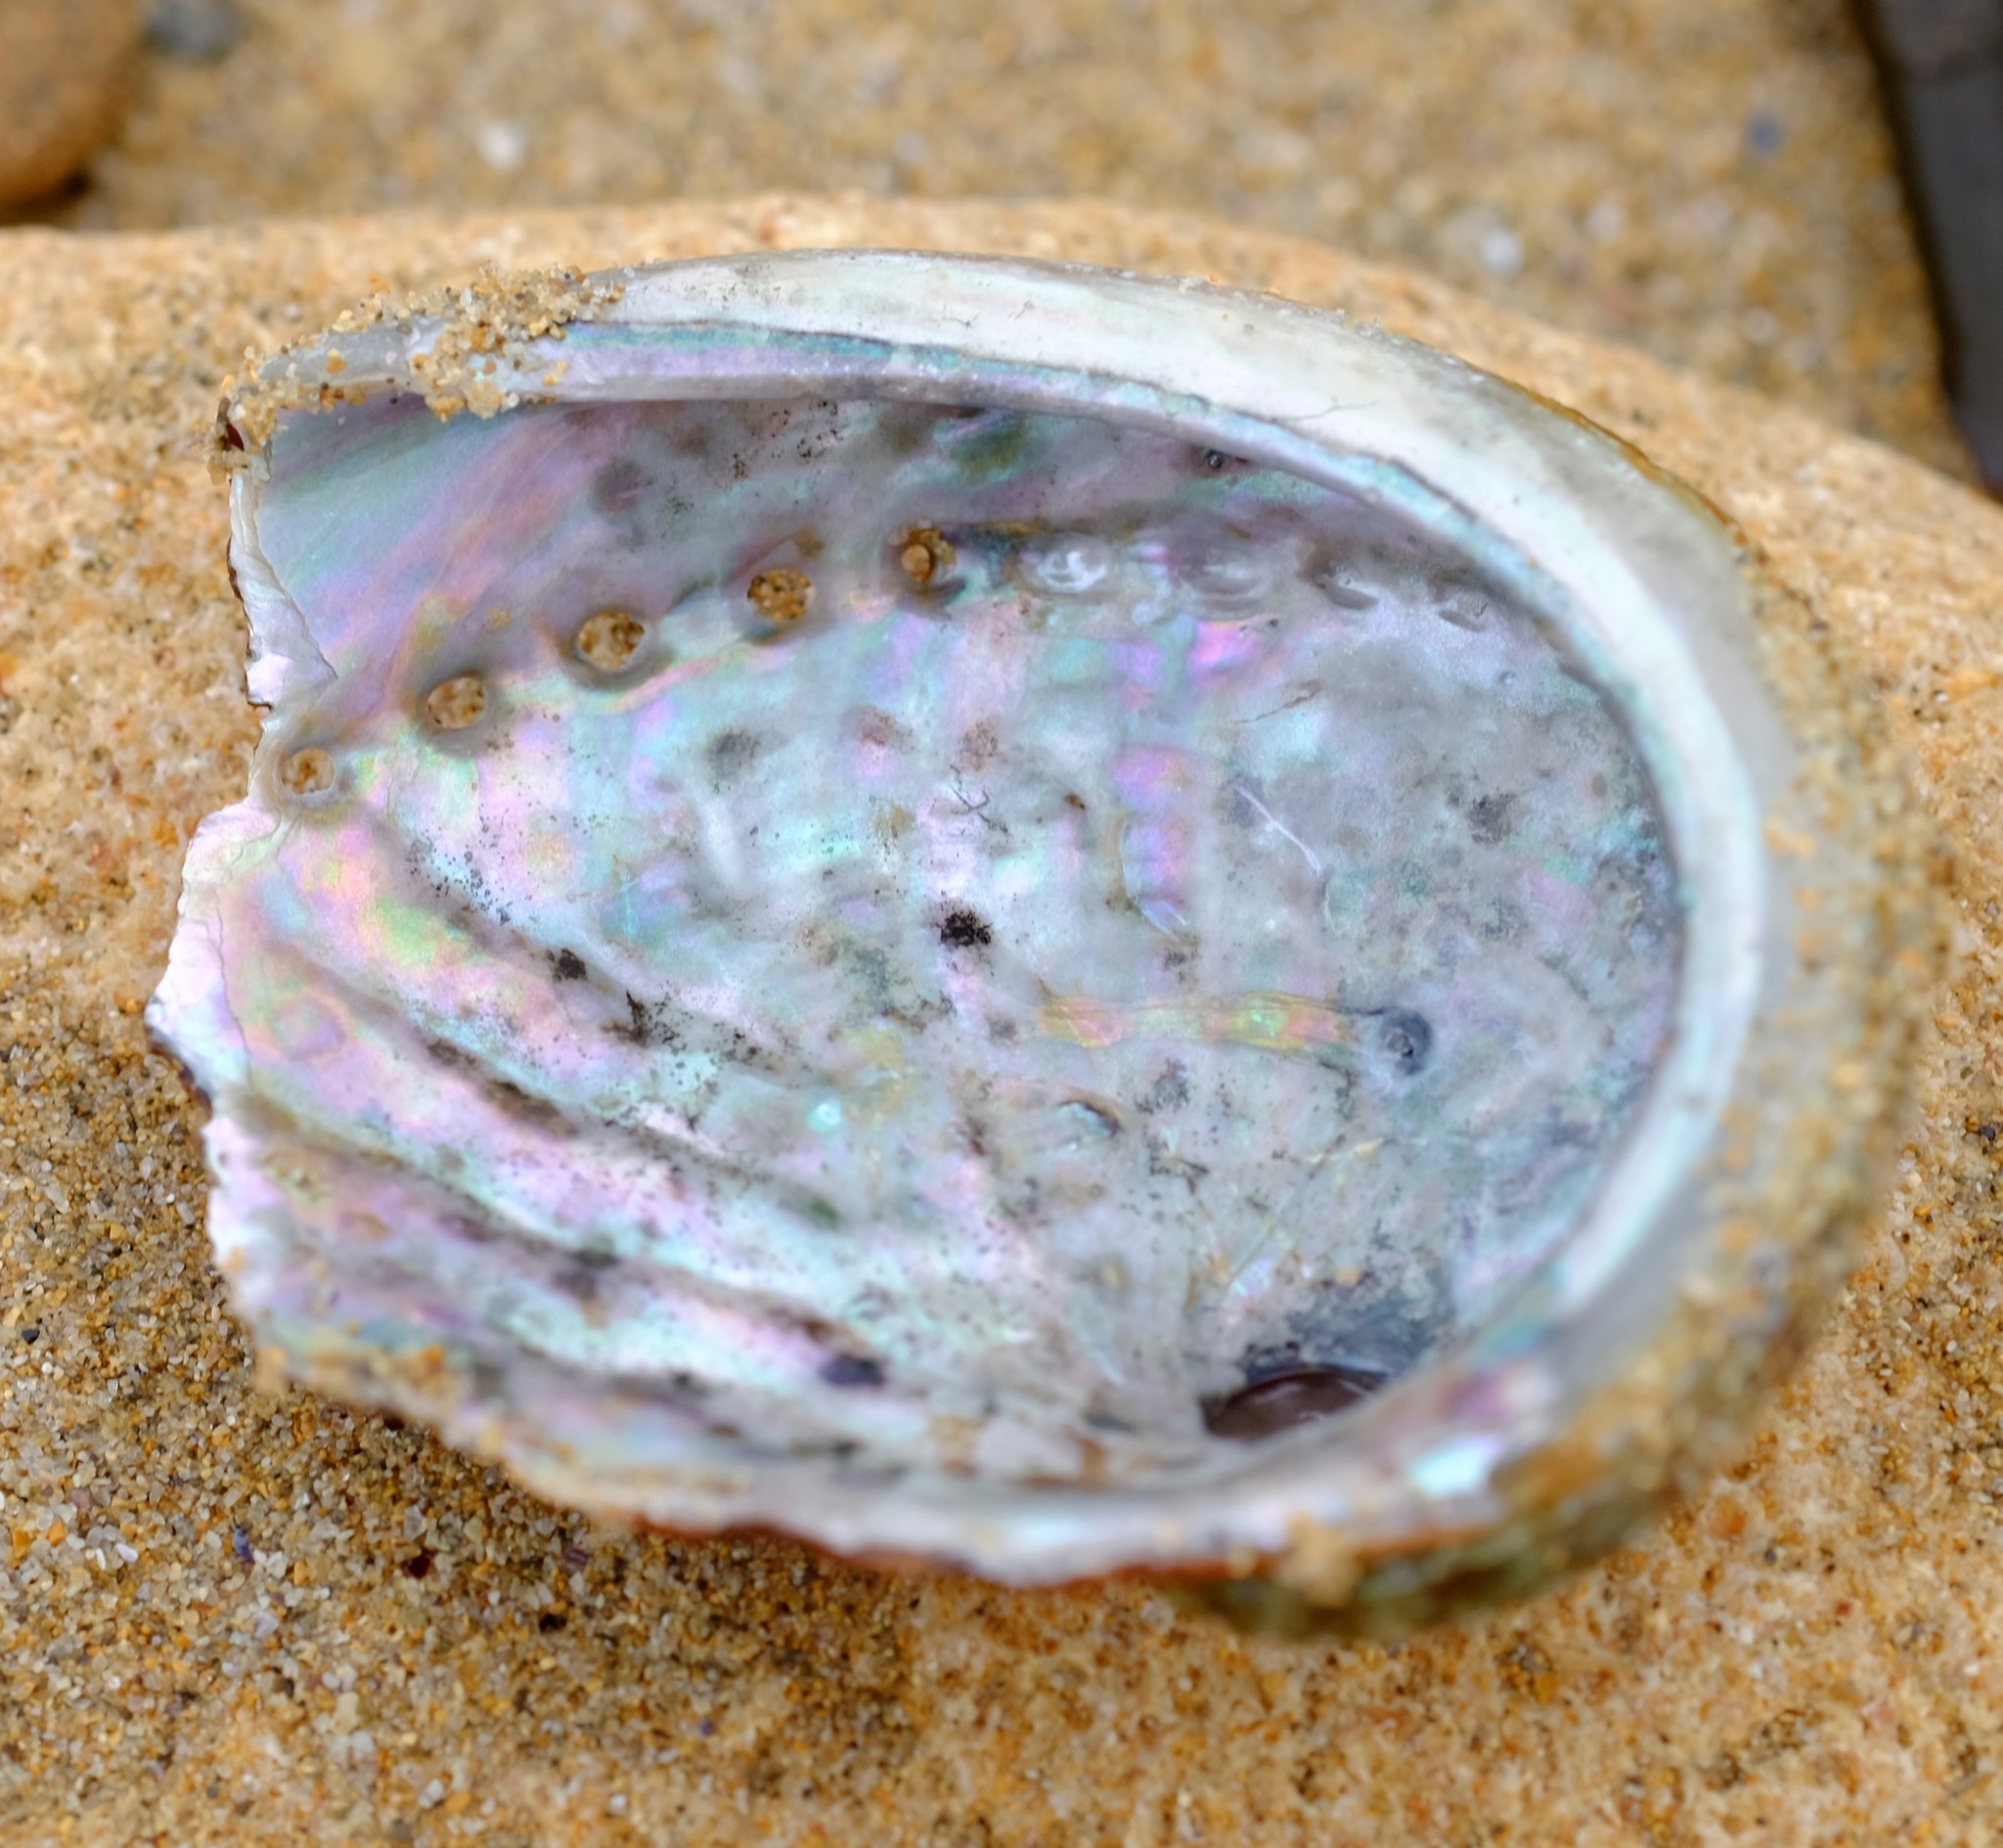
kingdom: Animalia
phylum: Mollusca
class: Gastropoda
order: Lepetellida
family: Haliotidae
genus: Haliotis
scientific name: Haliotis rubra
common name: Blacklip abalone
